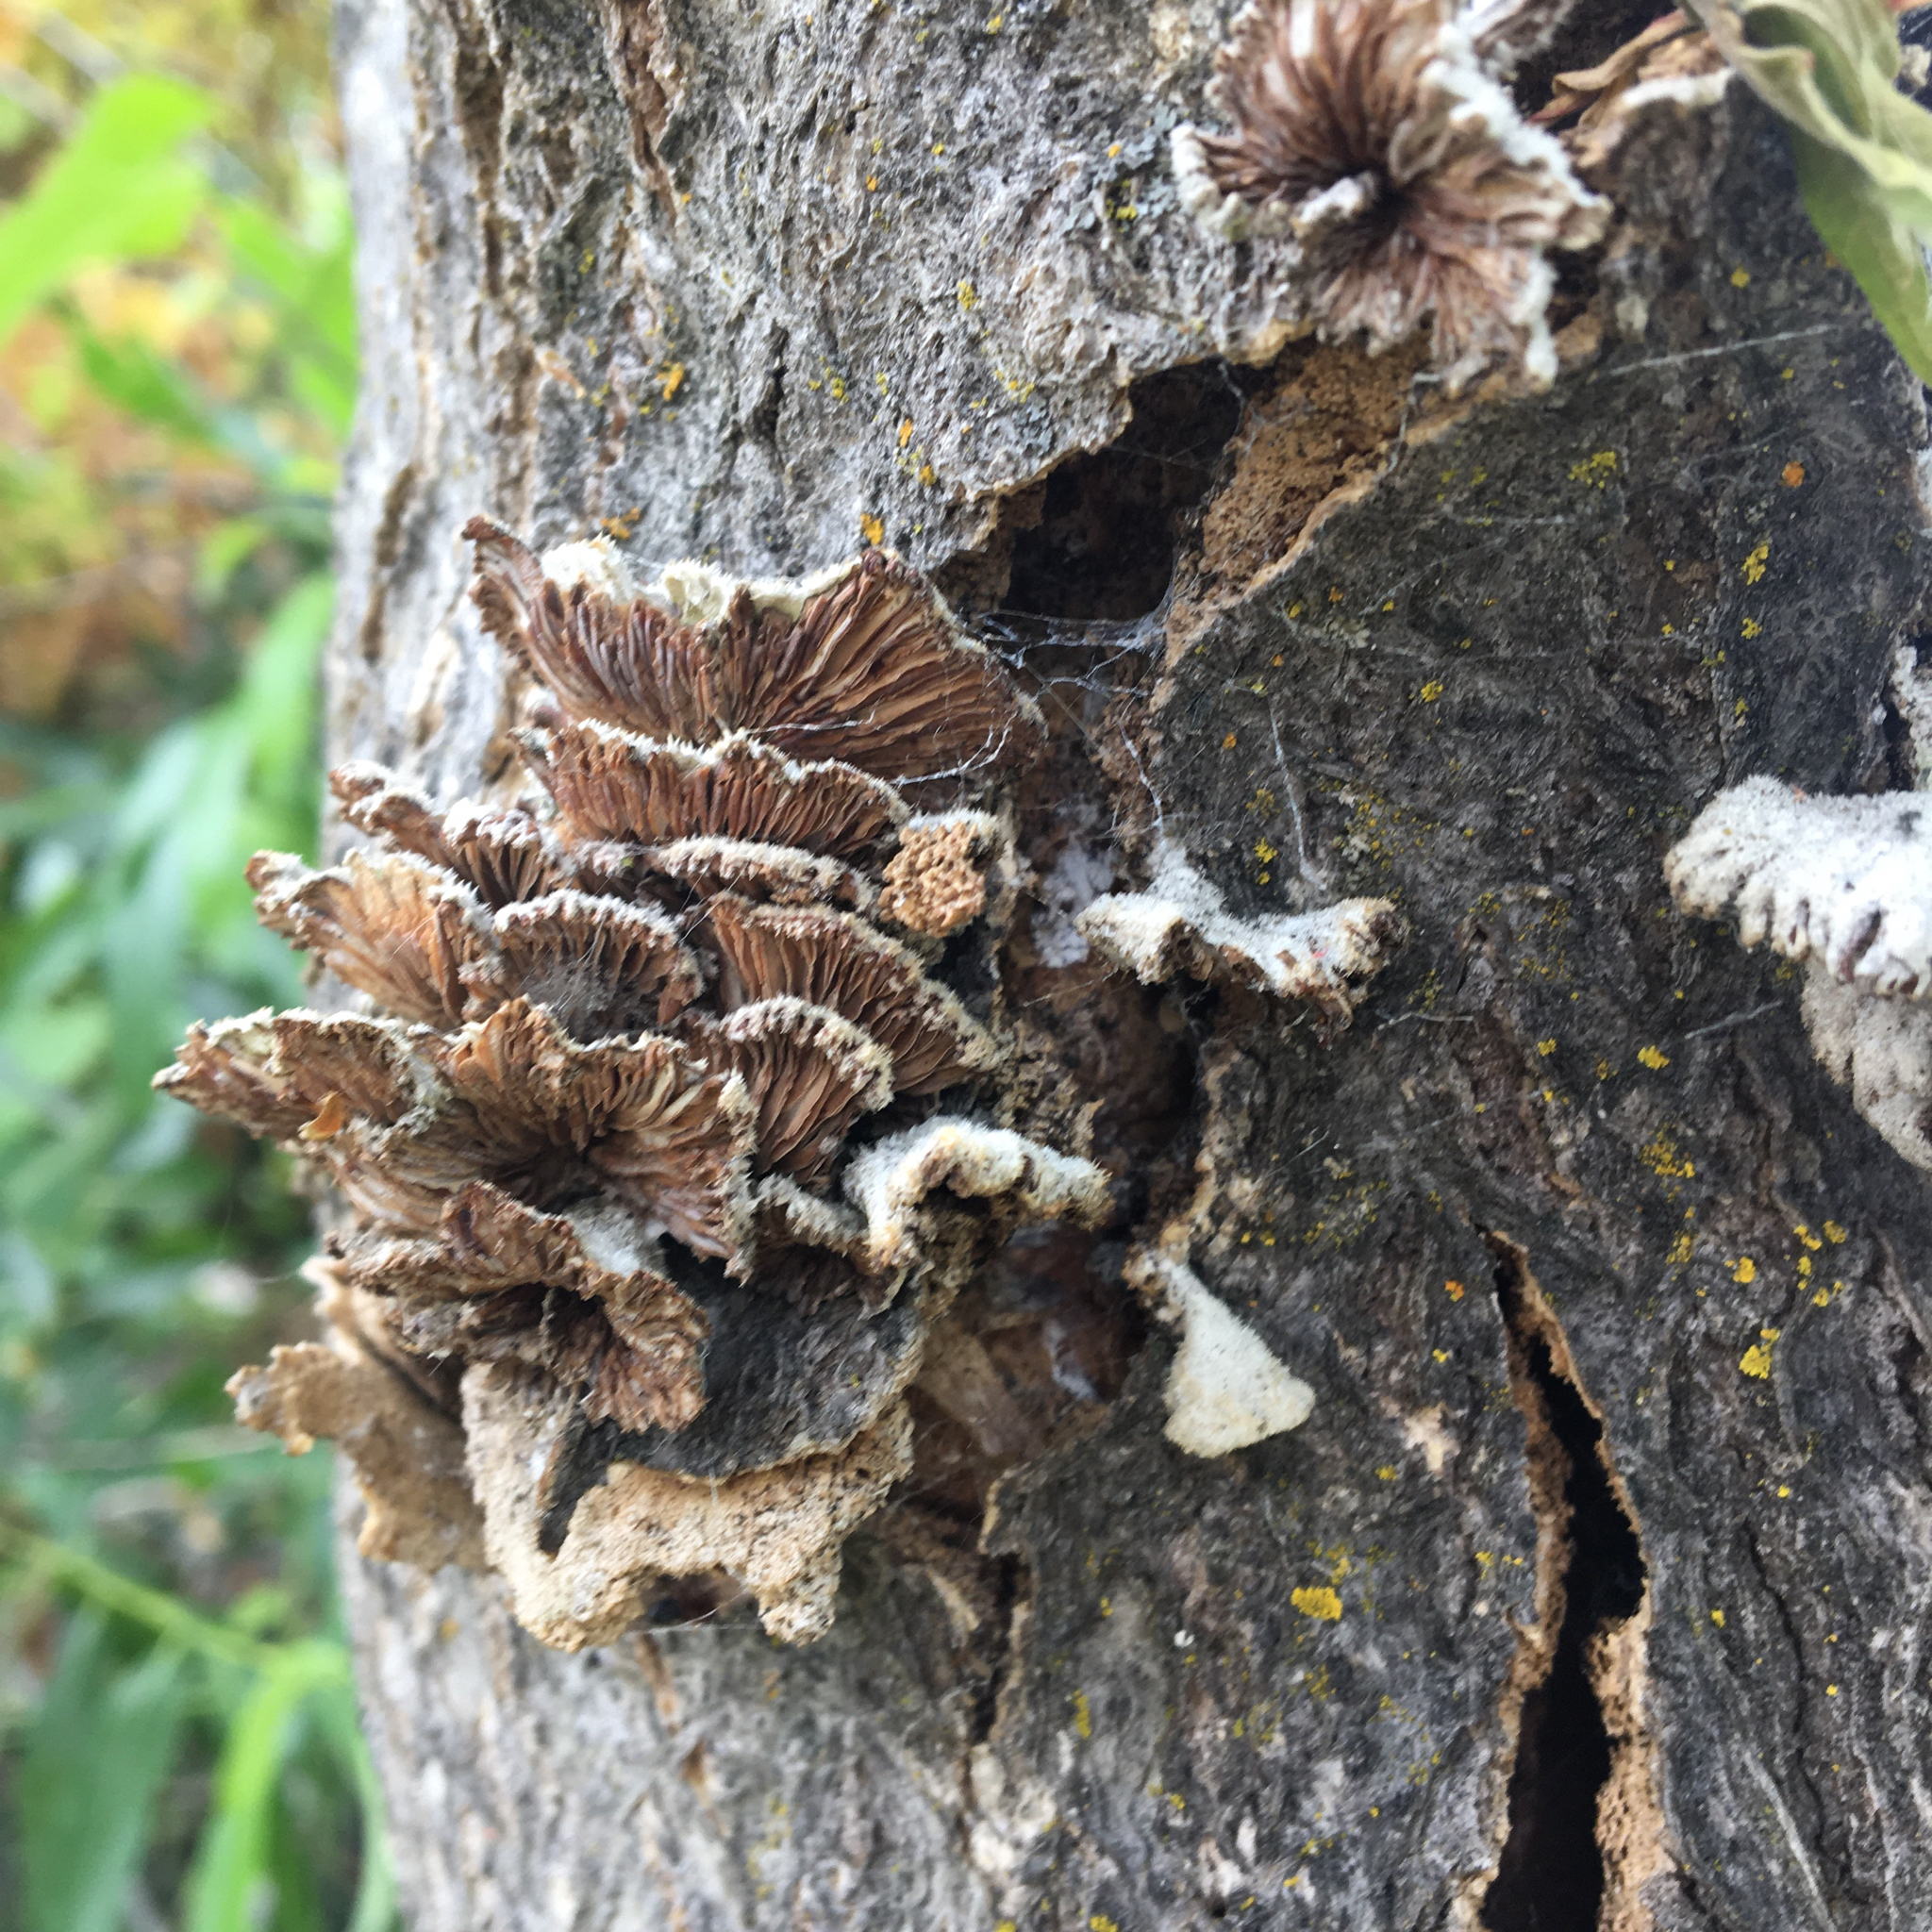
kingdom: Fungi
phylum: Basidiomycota
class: Agaricomycetes
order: Agaricales
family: Schizophyllaceae
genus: Schizophyllum
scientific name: Schizophyllum commune
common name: Common porecrust
